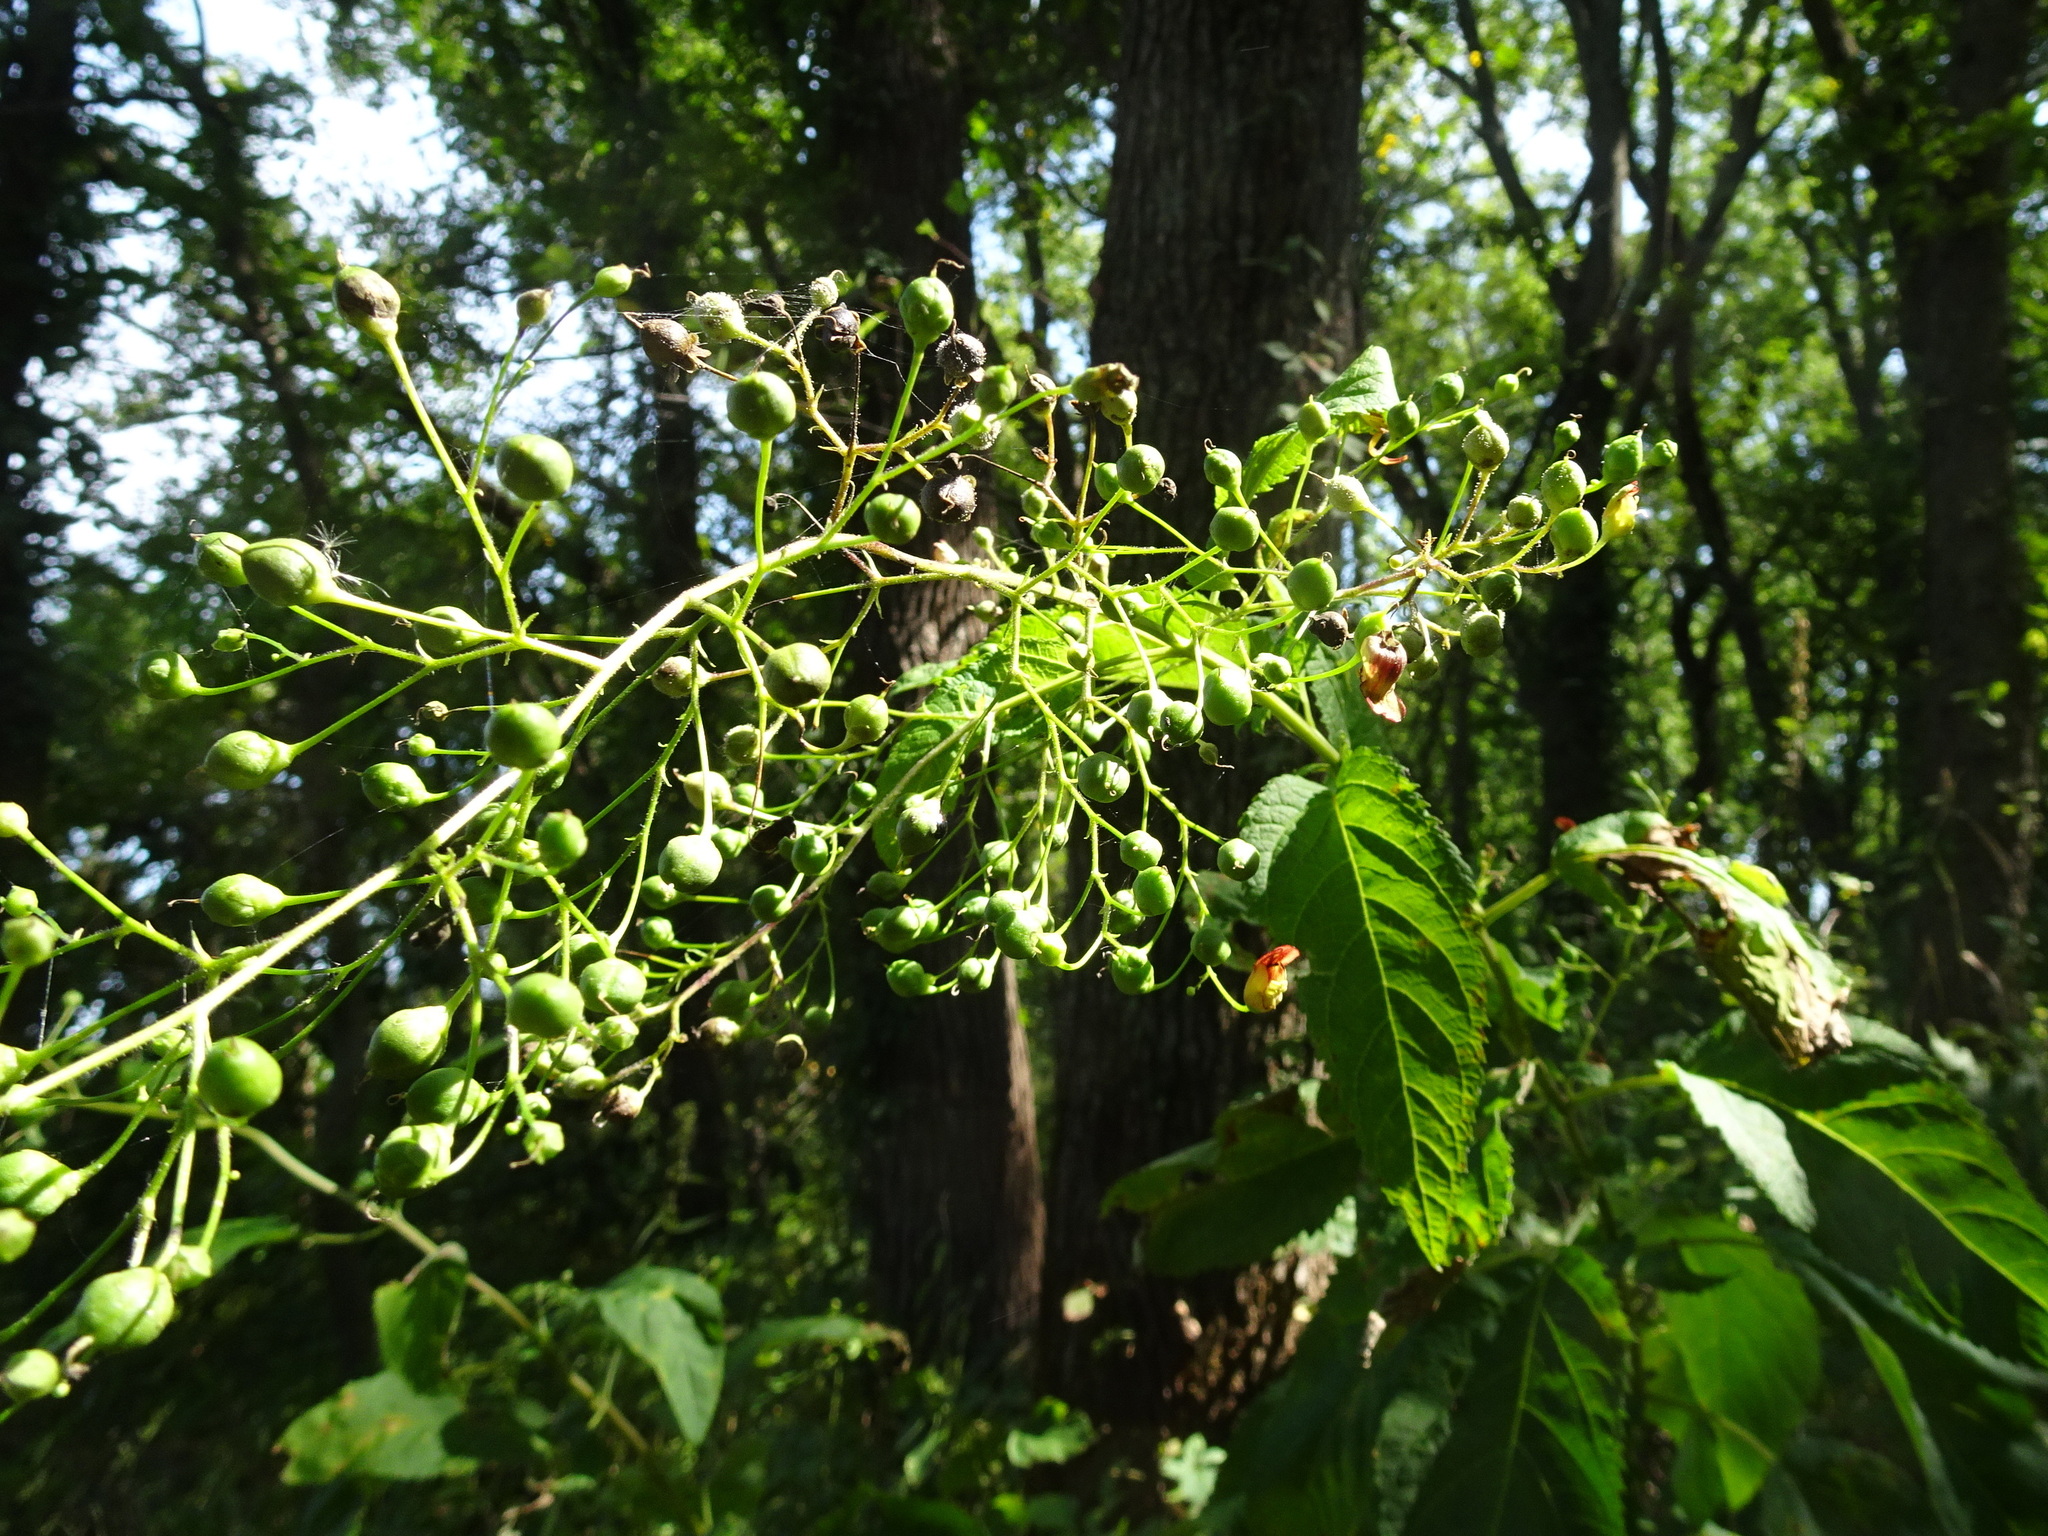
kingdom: Plantae
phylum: Tracheophyta
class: Magnoliopsida
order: Lamiales
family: Scrophulariaceae
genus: Scrophularia
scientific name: Scrophularia marilandica
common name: Eastern figwort
